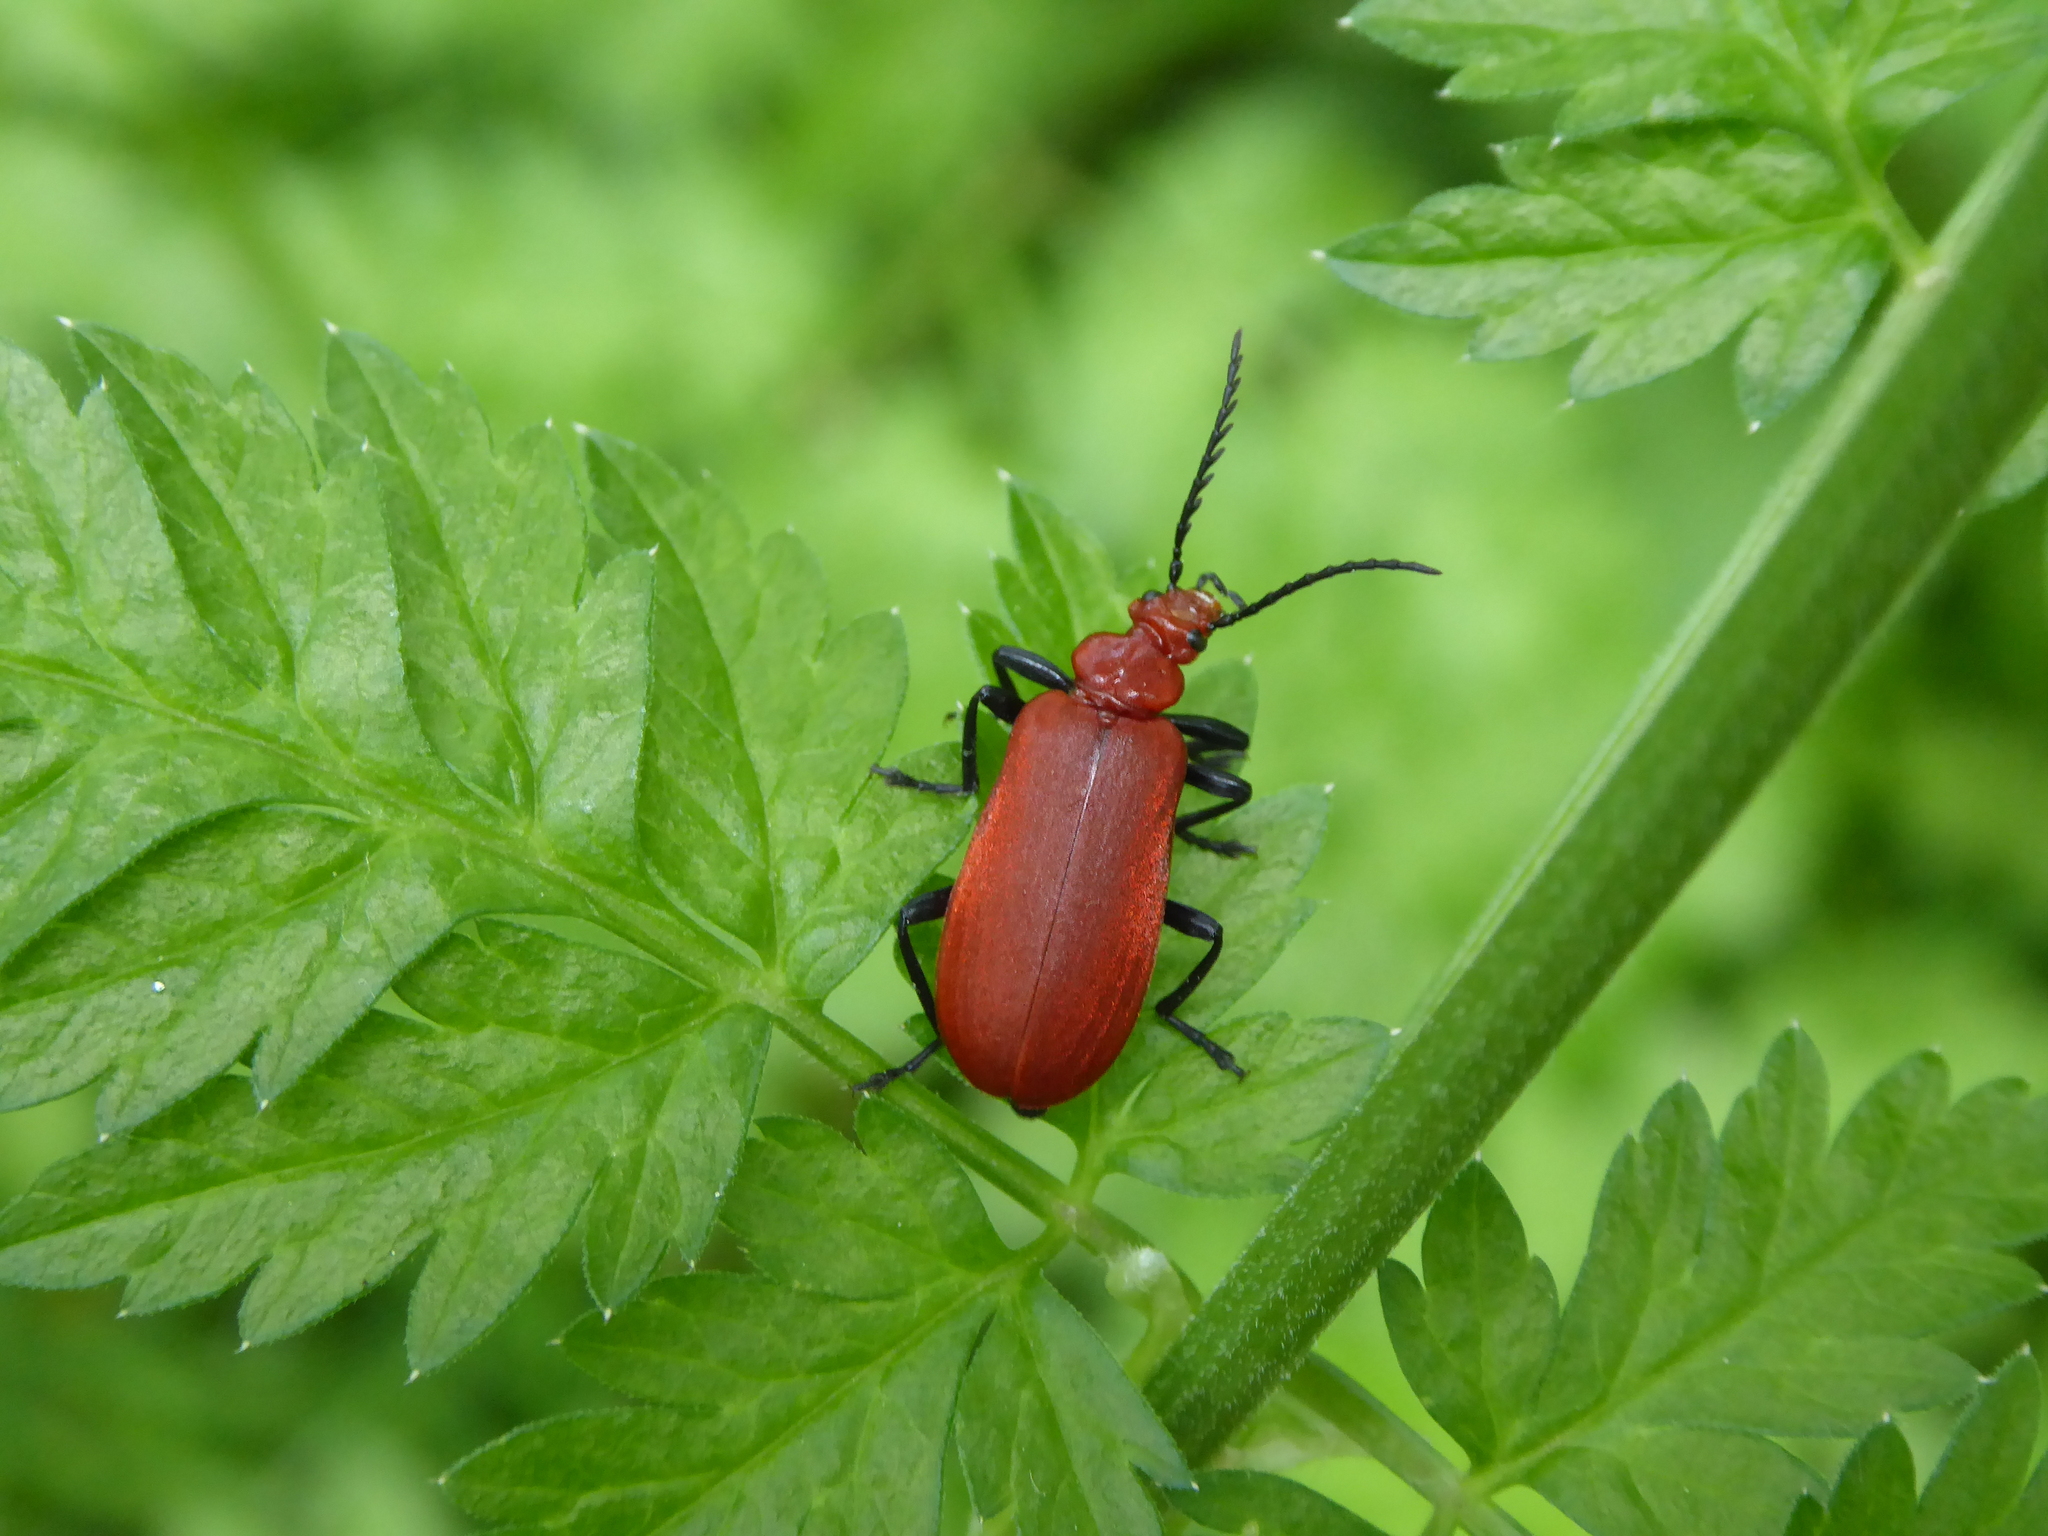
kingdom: Animalia
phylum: Arthropoda
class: Insecta
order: Coleoptera
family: Pyrochroidae
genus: Pyrochroa
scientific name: Pyrochroa serraticornis
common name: Red-headed cardinal beetle
